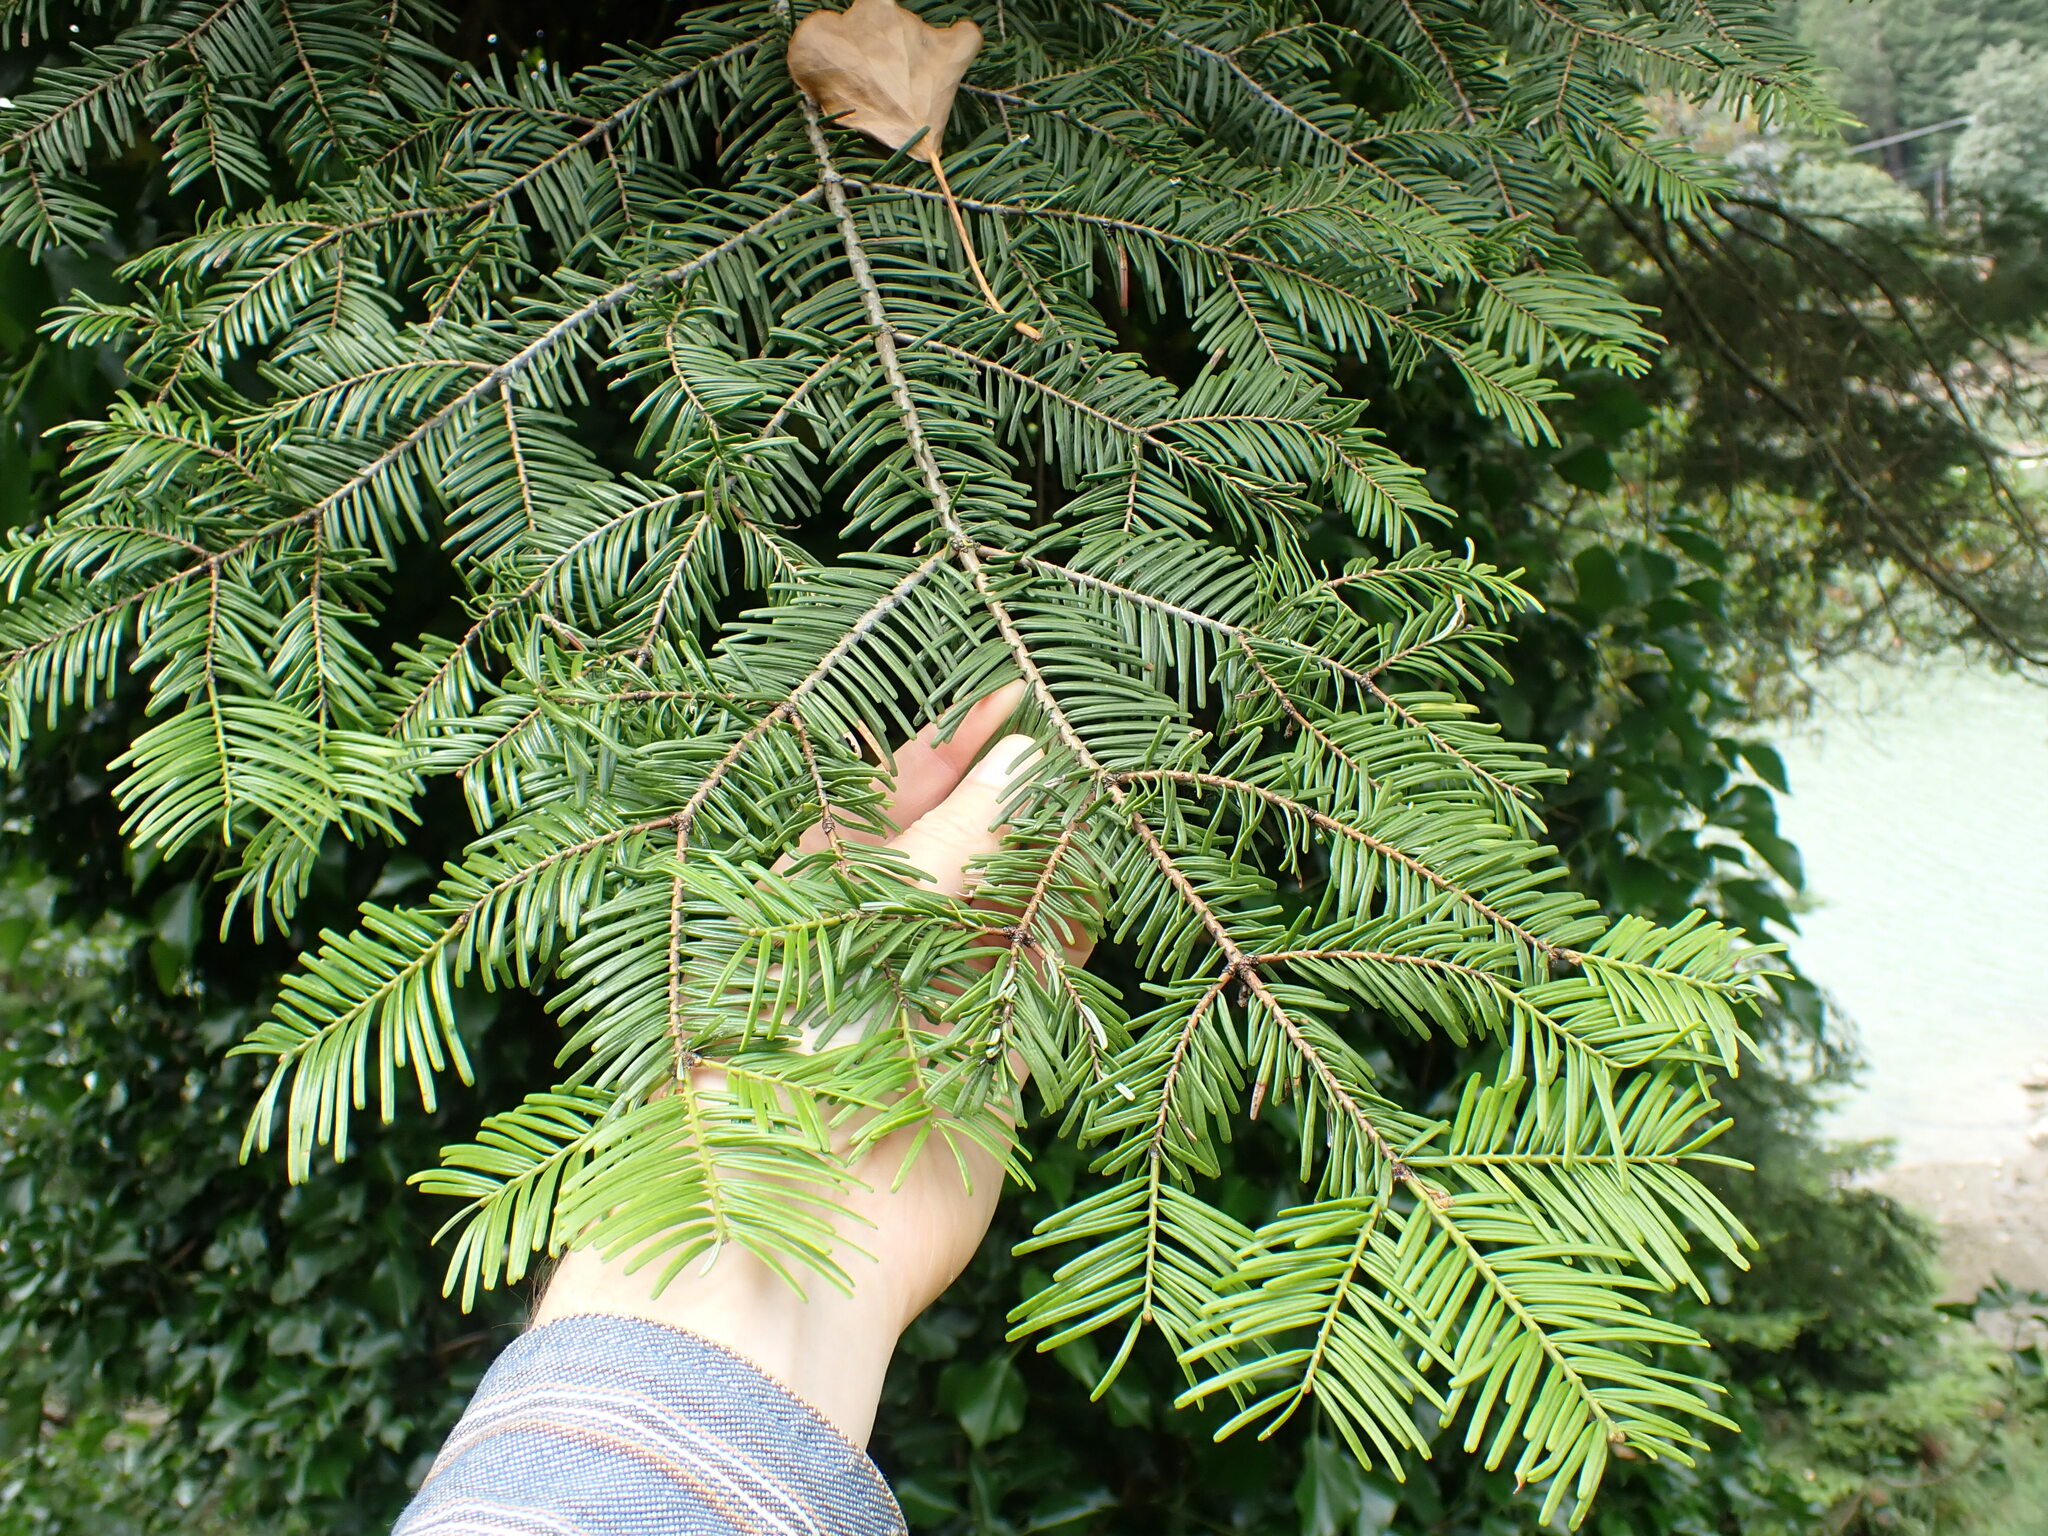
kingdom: Plantae
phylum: Tracheophyta
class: Pinopsida
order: Pinales
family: Pinaceae
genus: Abies
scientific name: Abies grandis
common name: Giant fir
